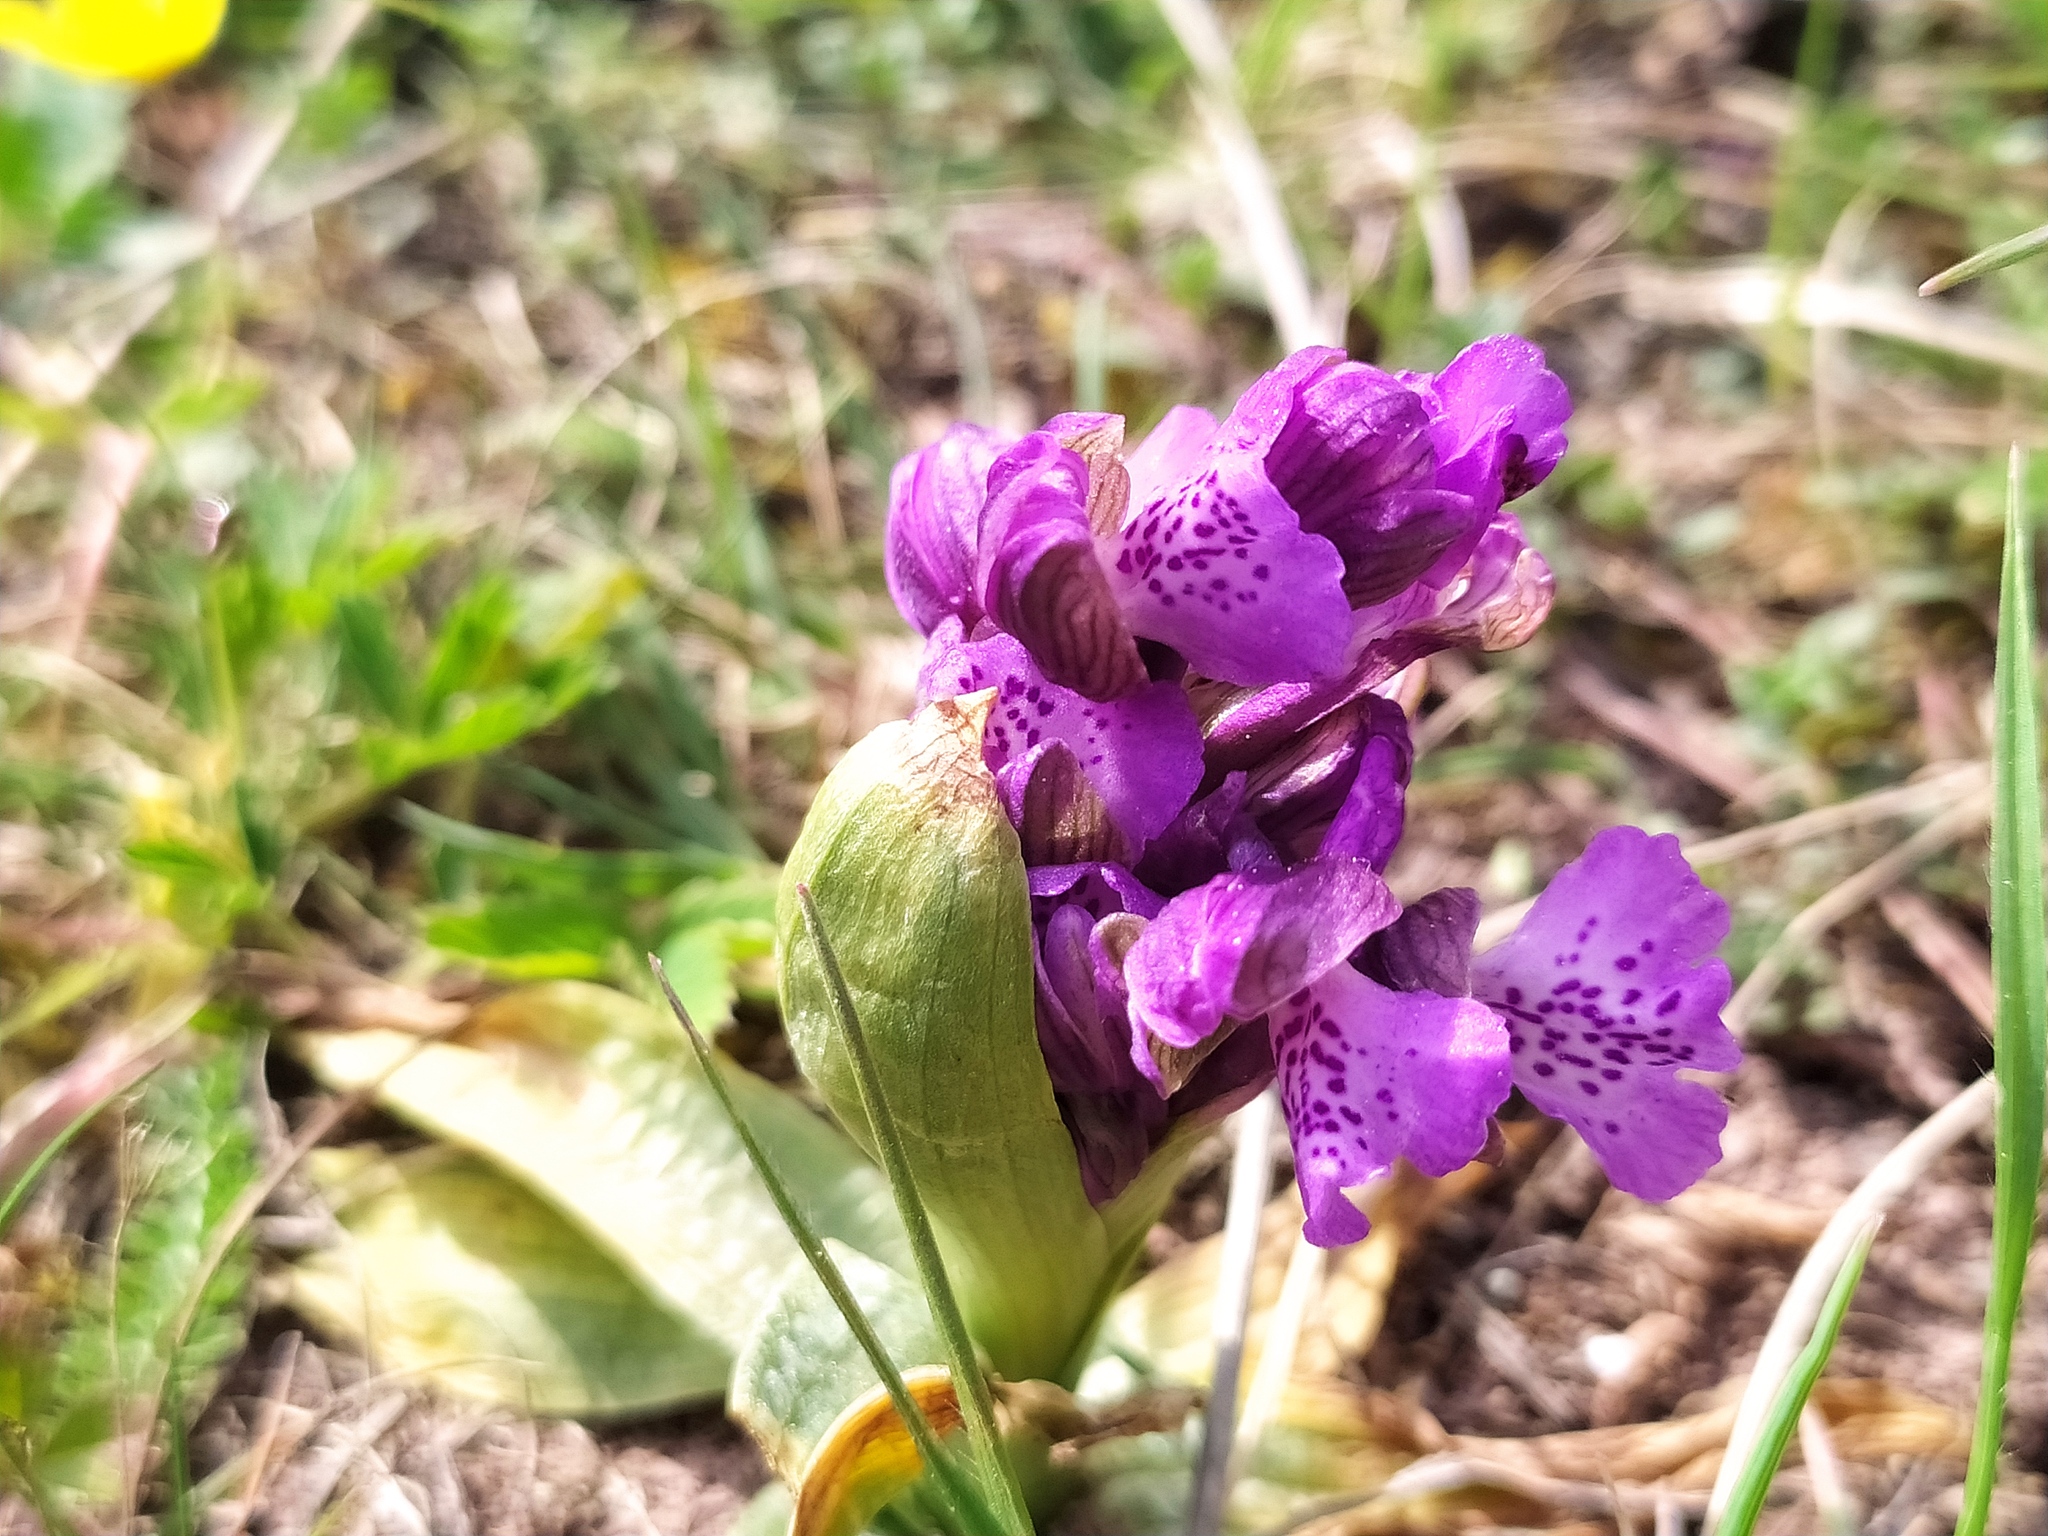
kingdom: Plantae
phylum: Tracheophyta
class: Liliopsida
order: Asparagales
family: Orchidaceae
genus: Anacamptis
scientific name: Anacamptis morio
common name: Green-winged orchid
